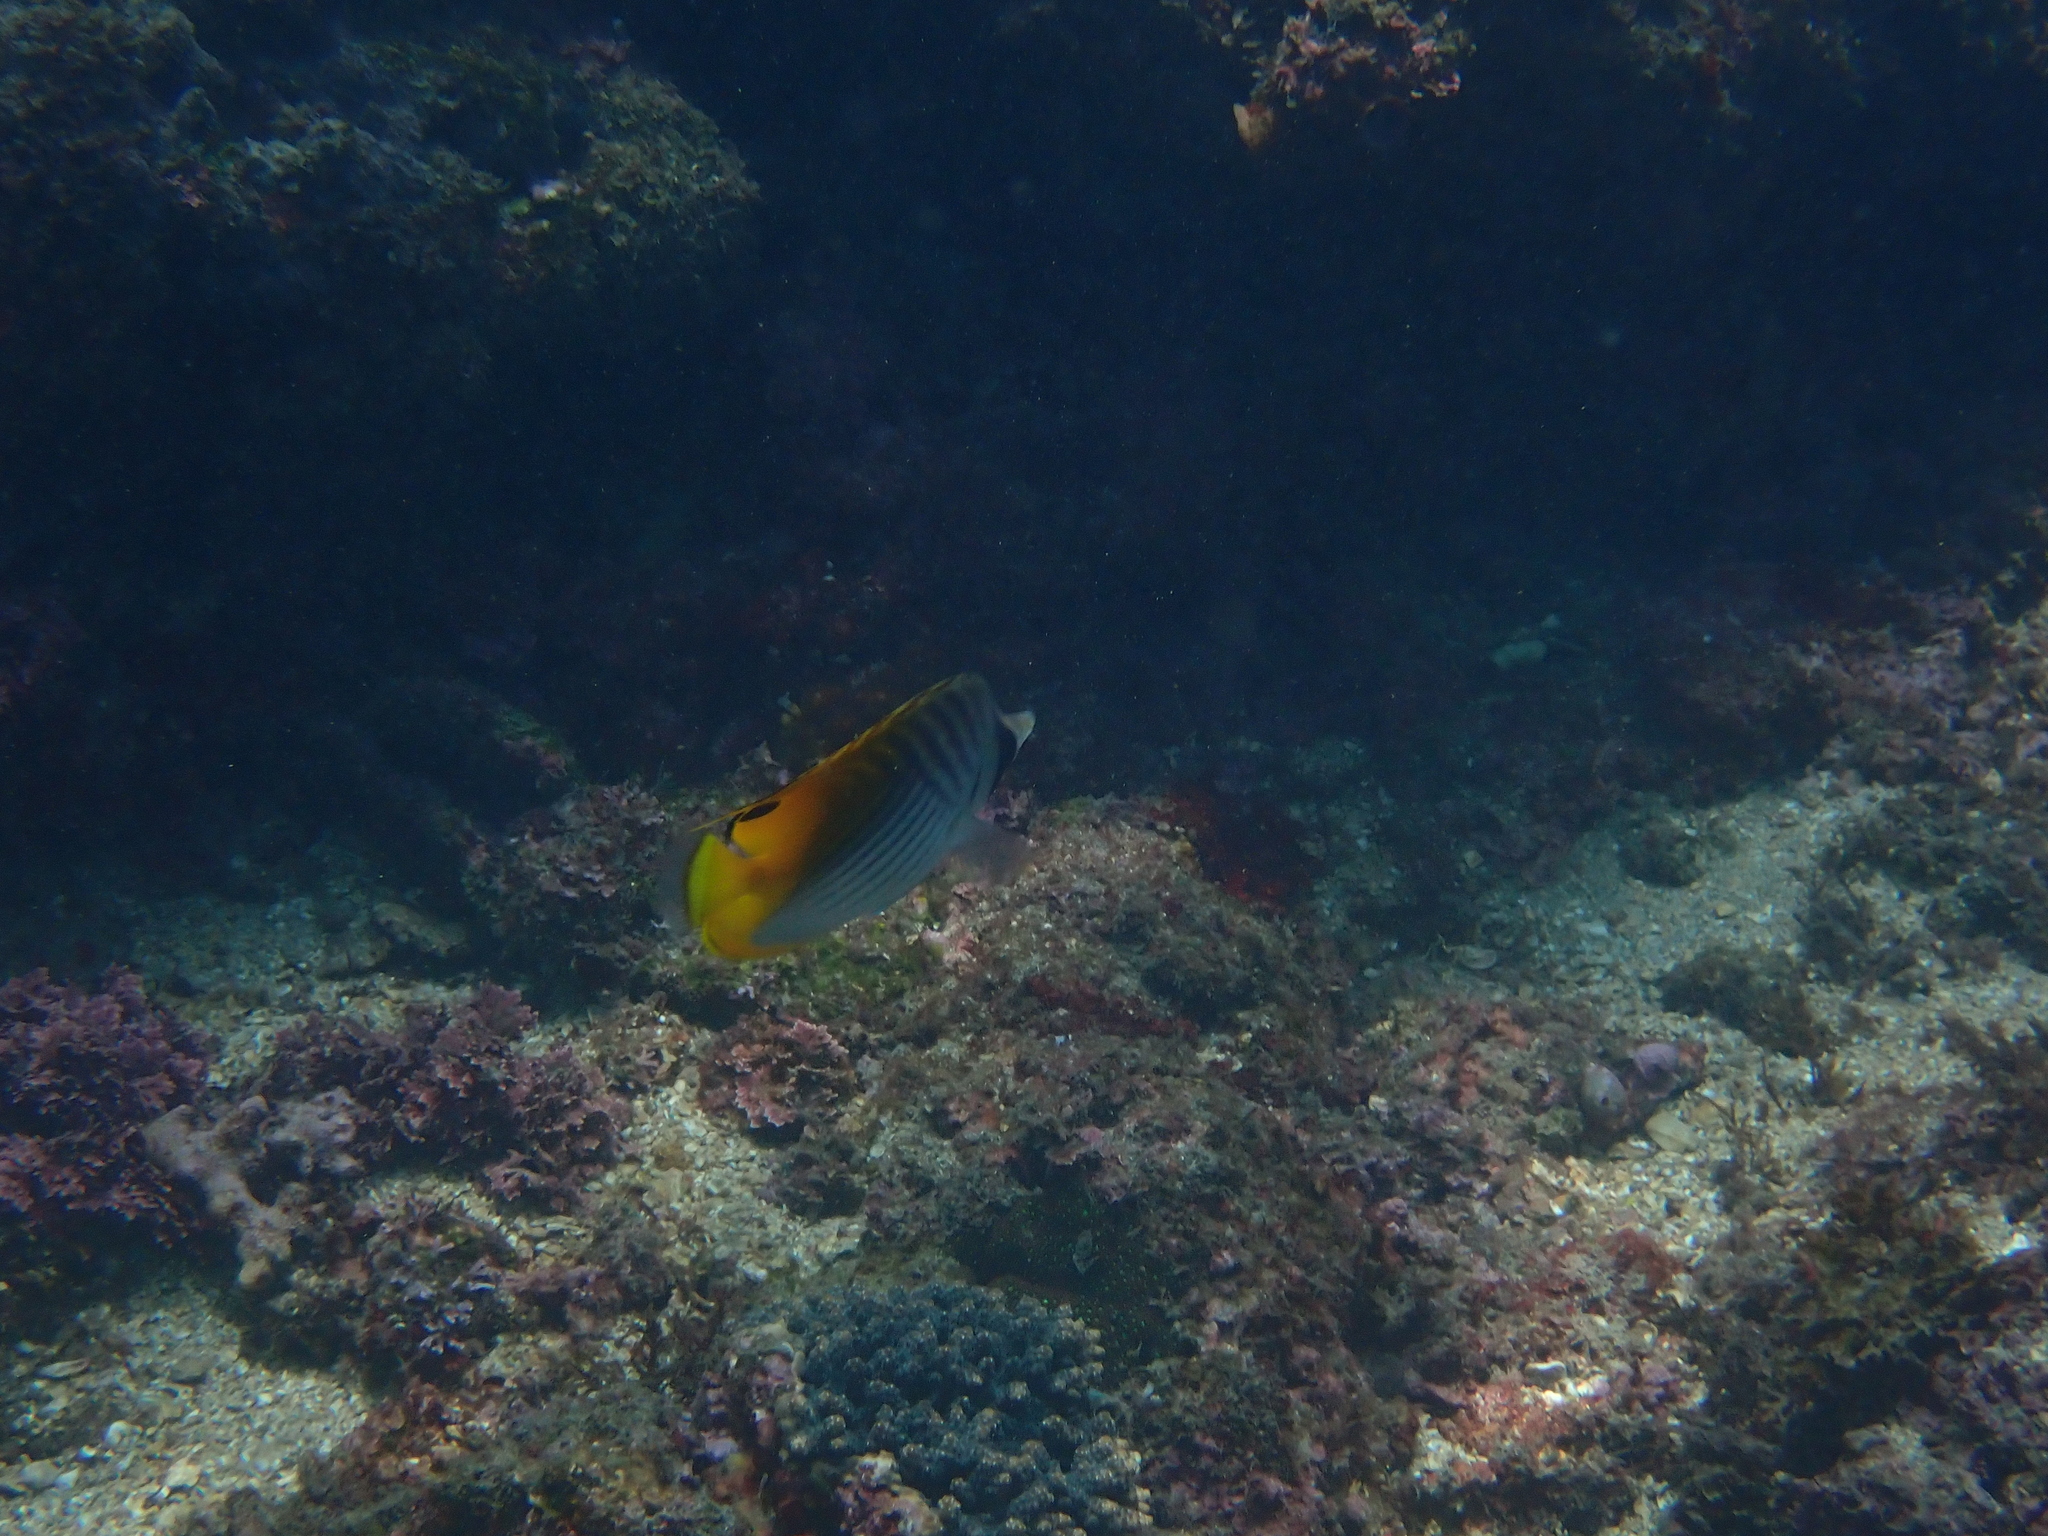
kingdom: Animalia
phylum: Chordata
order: Perciformes
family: Chaetodontidae
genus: Chaetodon
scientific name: Chaetodon auriga
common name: Threadfin butterflyfish
